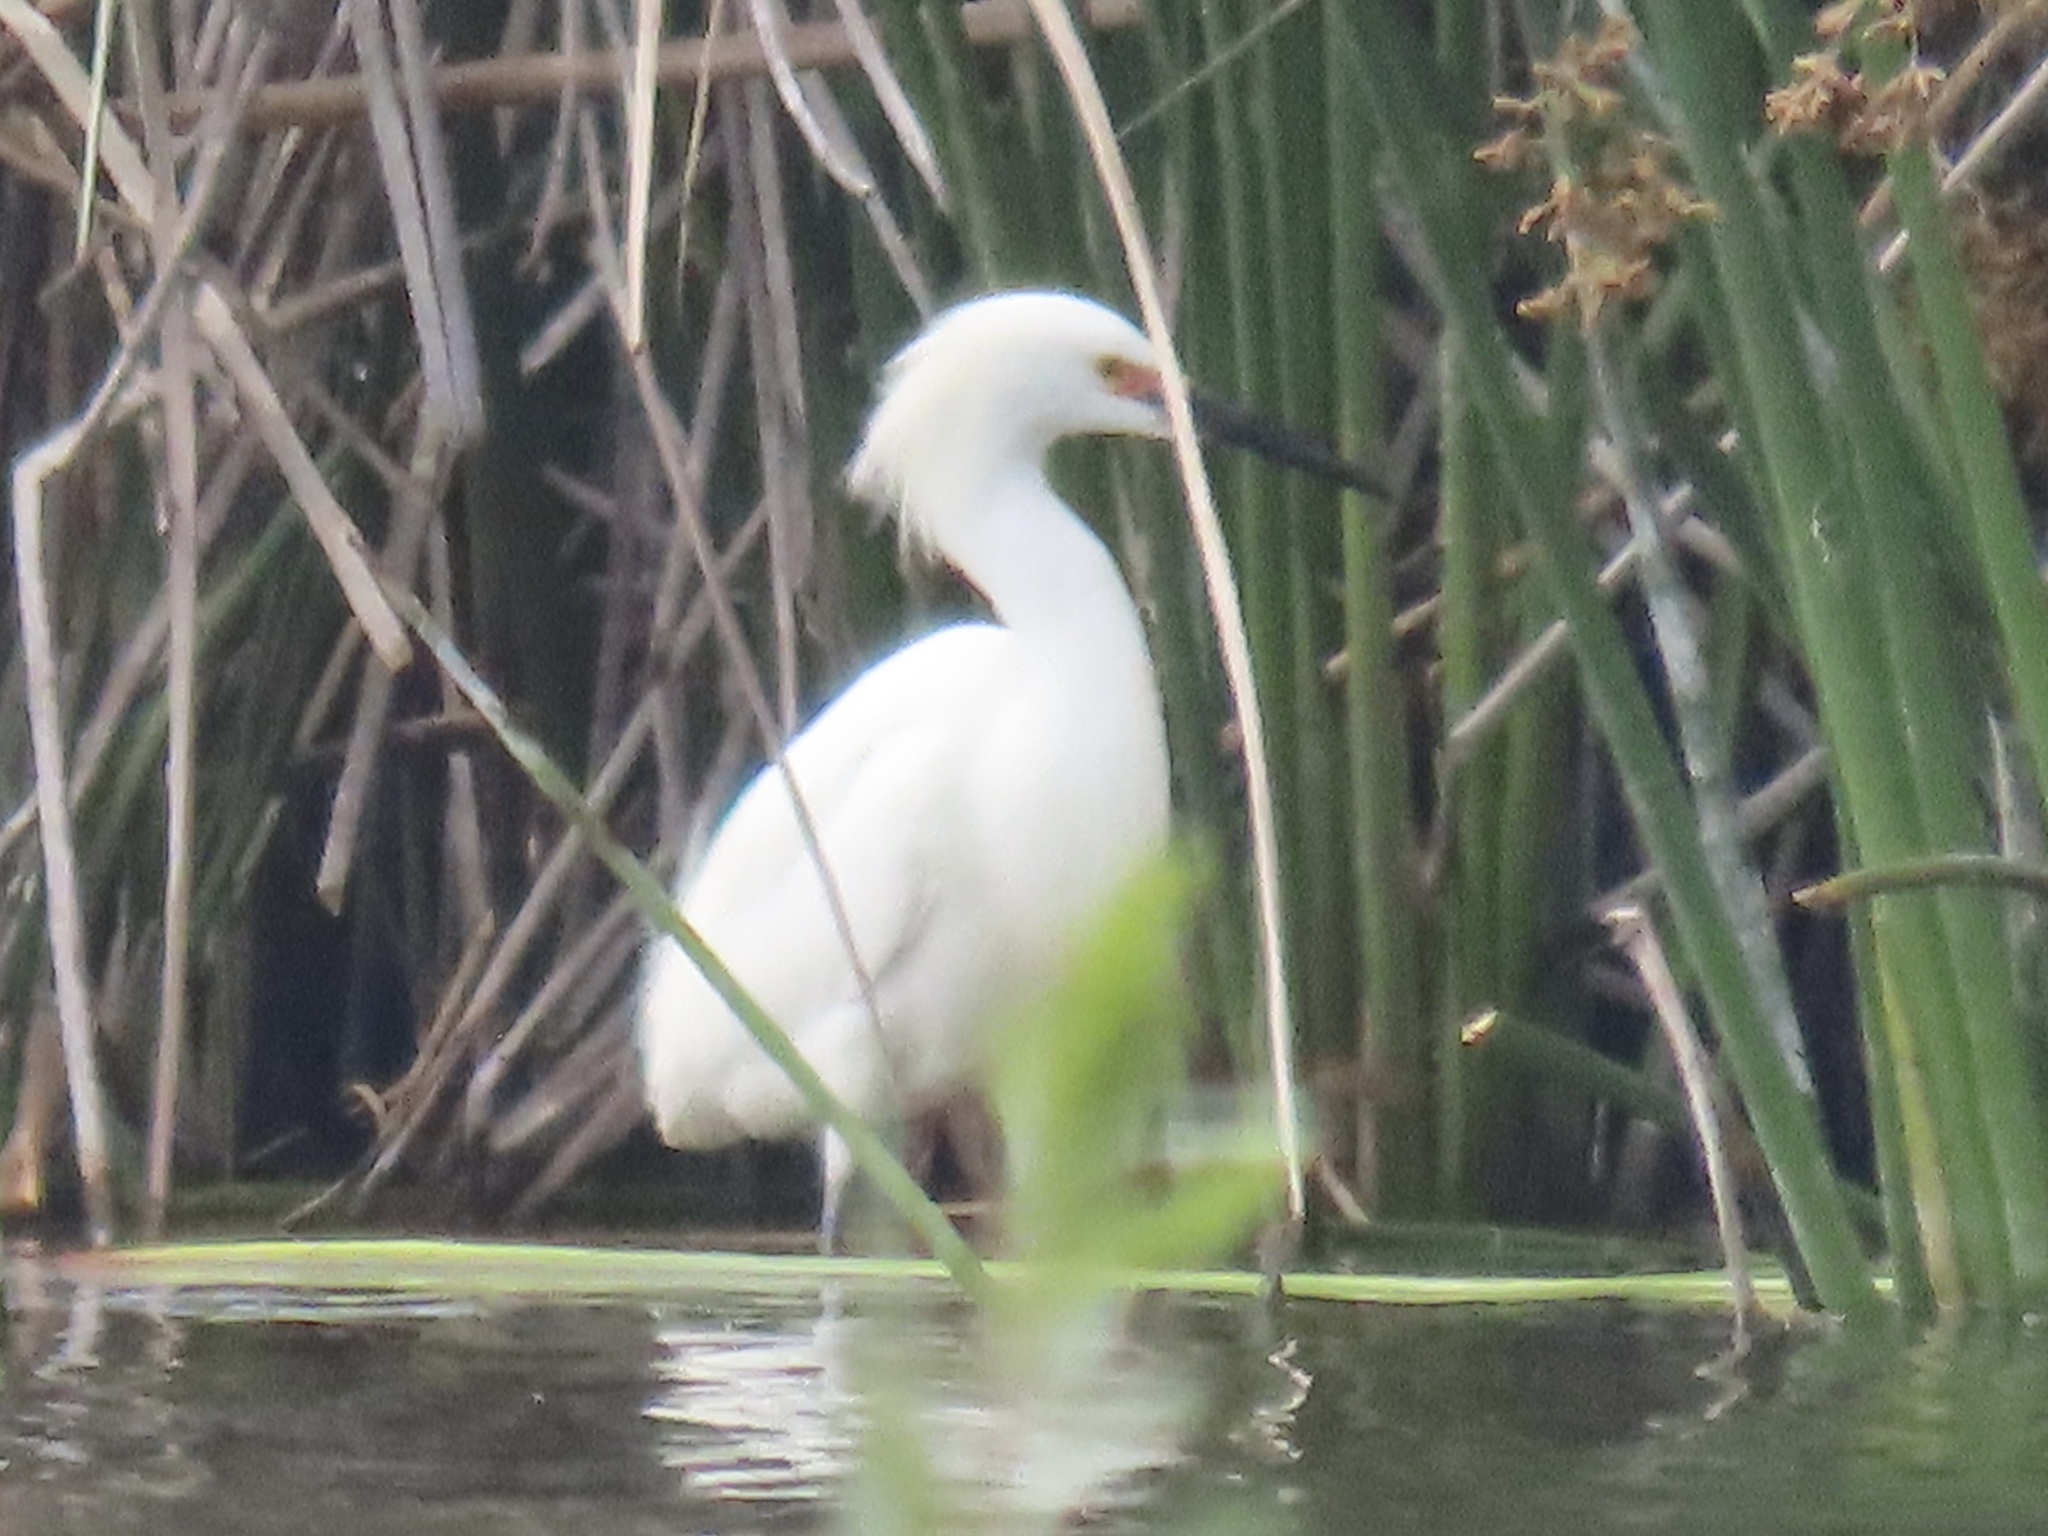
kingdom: Animalia
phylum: Chordata
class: Aves
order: Pelecaniformes
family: Ardeidae
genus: Egretta
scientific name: Egretta thula
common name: Snowy egret
